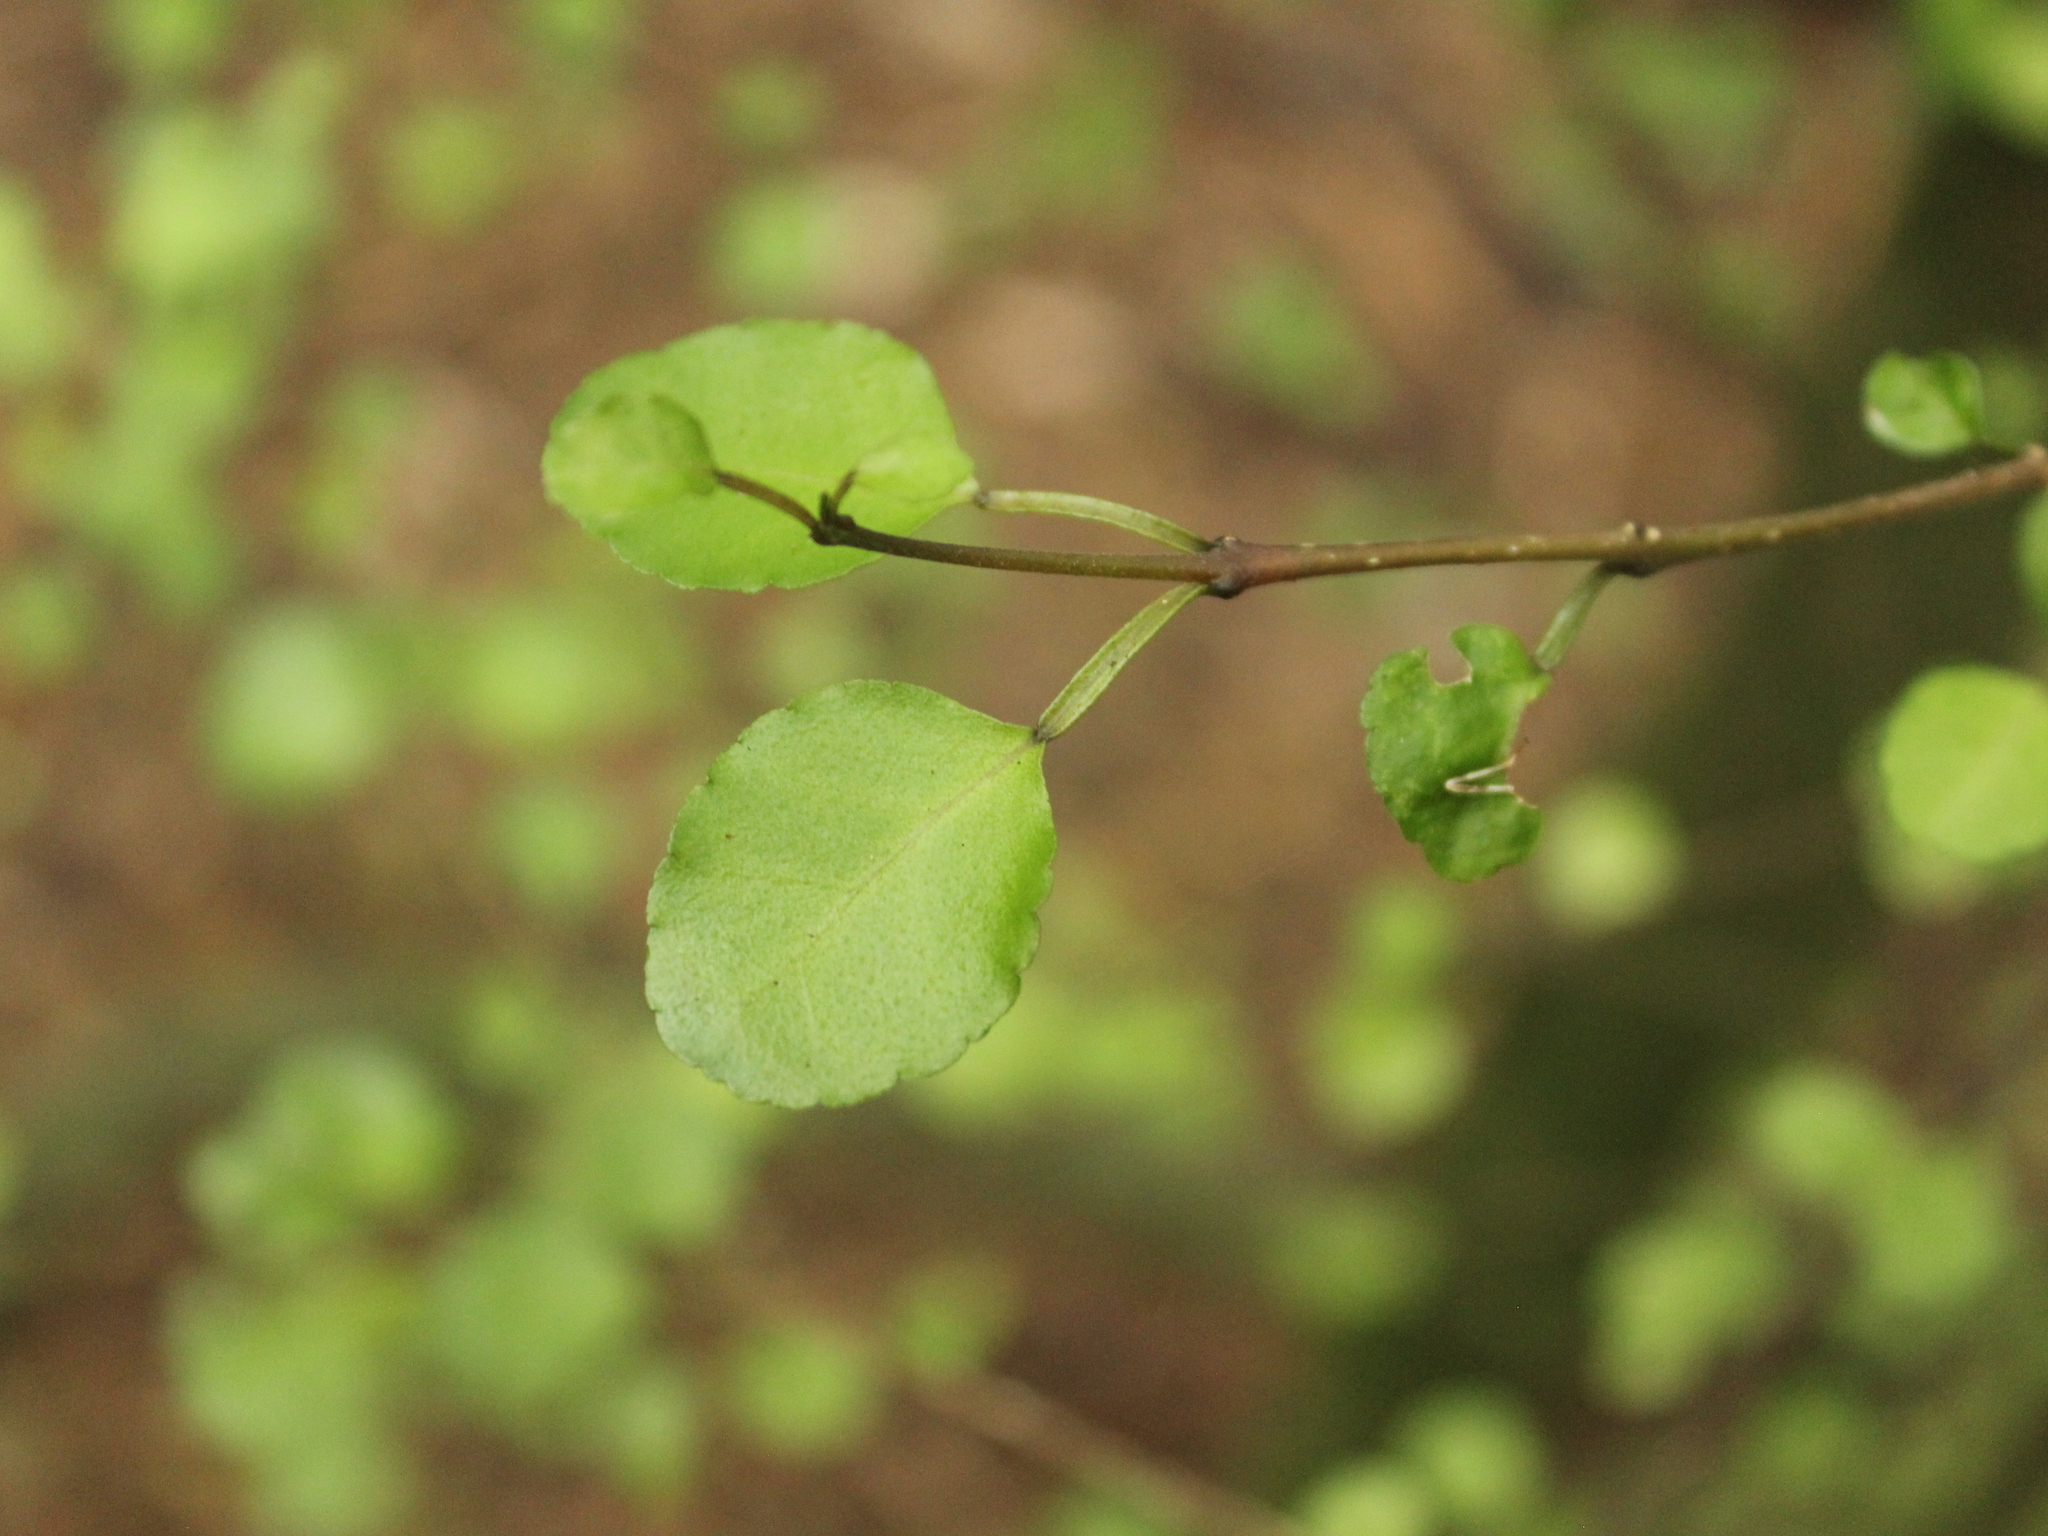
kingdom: Plantae
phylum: Tracheophyta
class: Magnoliopsida
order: Rosales
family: Moraceae
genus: Paratrophis
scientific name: Paratrophis microphylla
